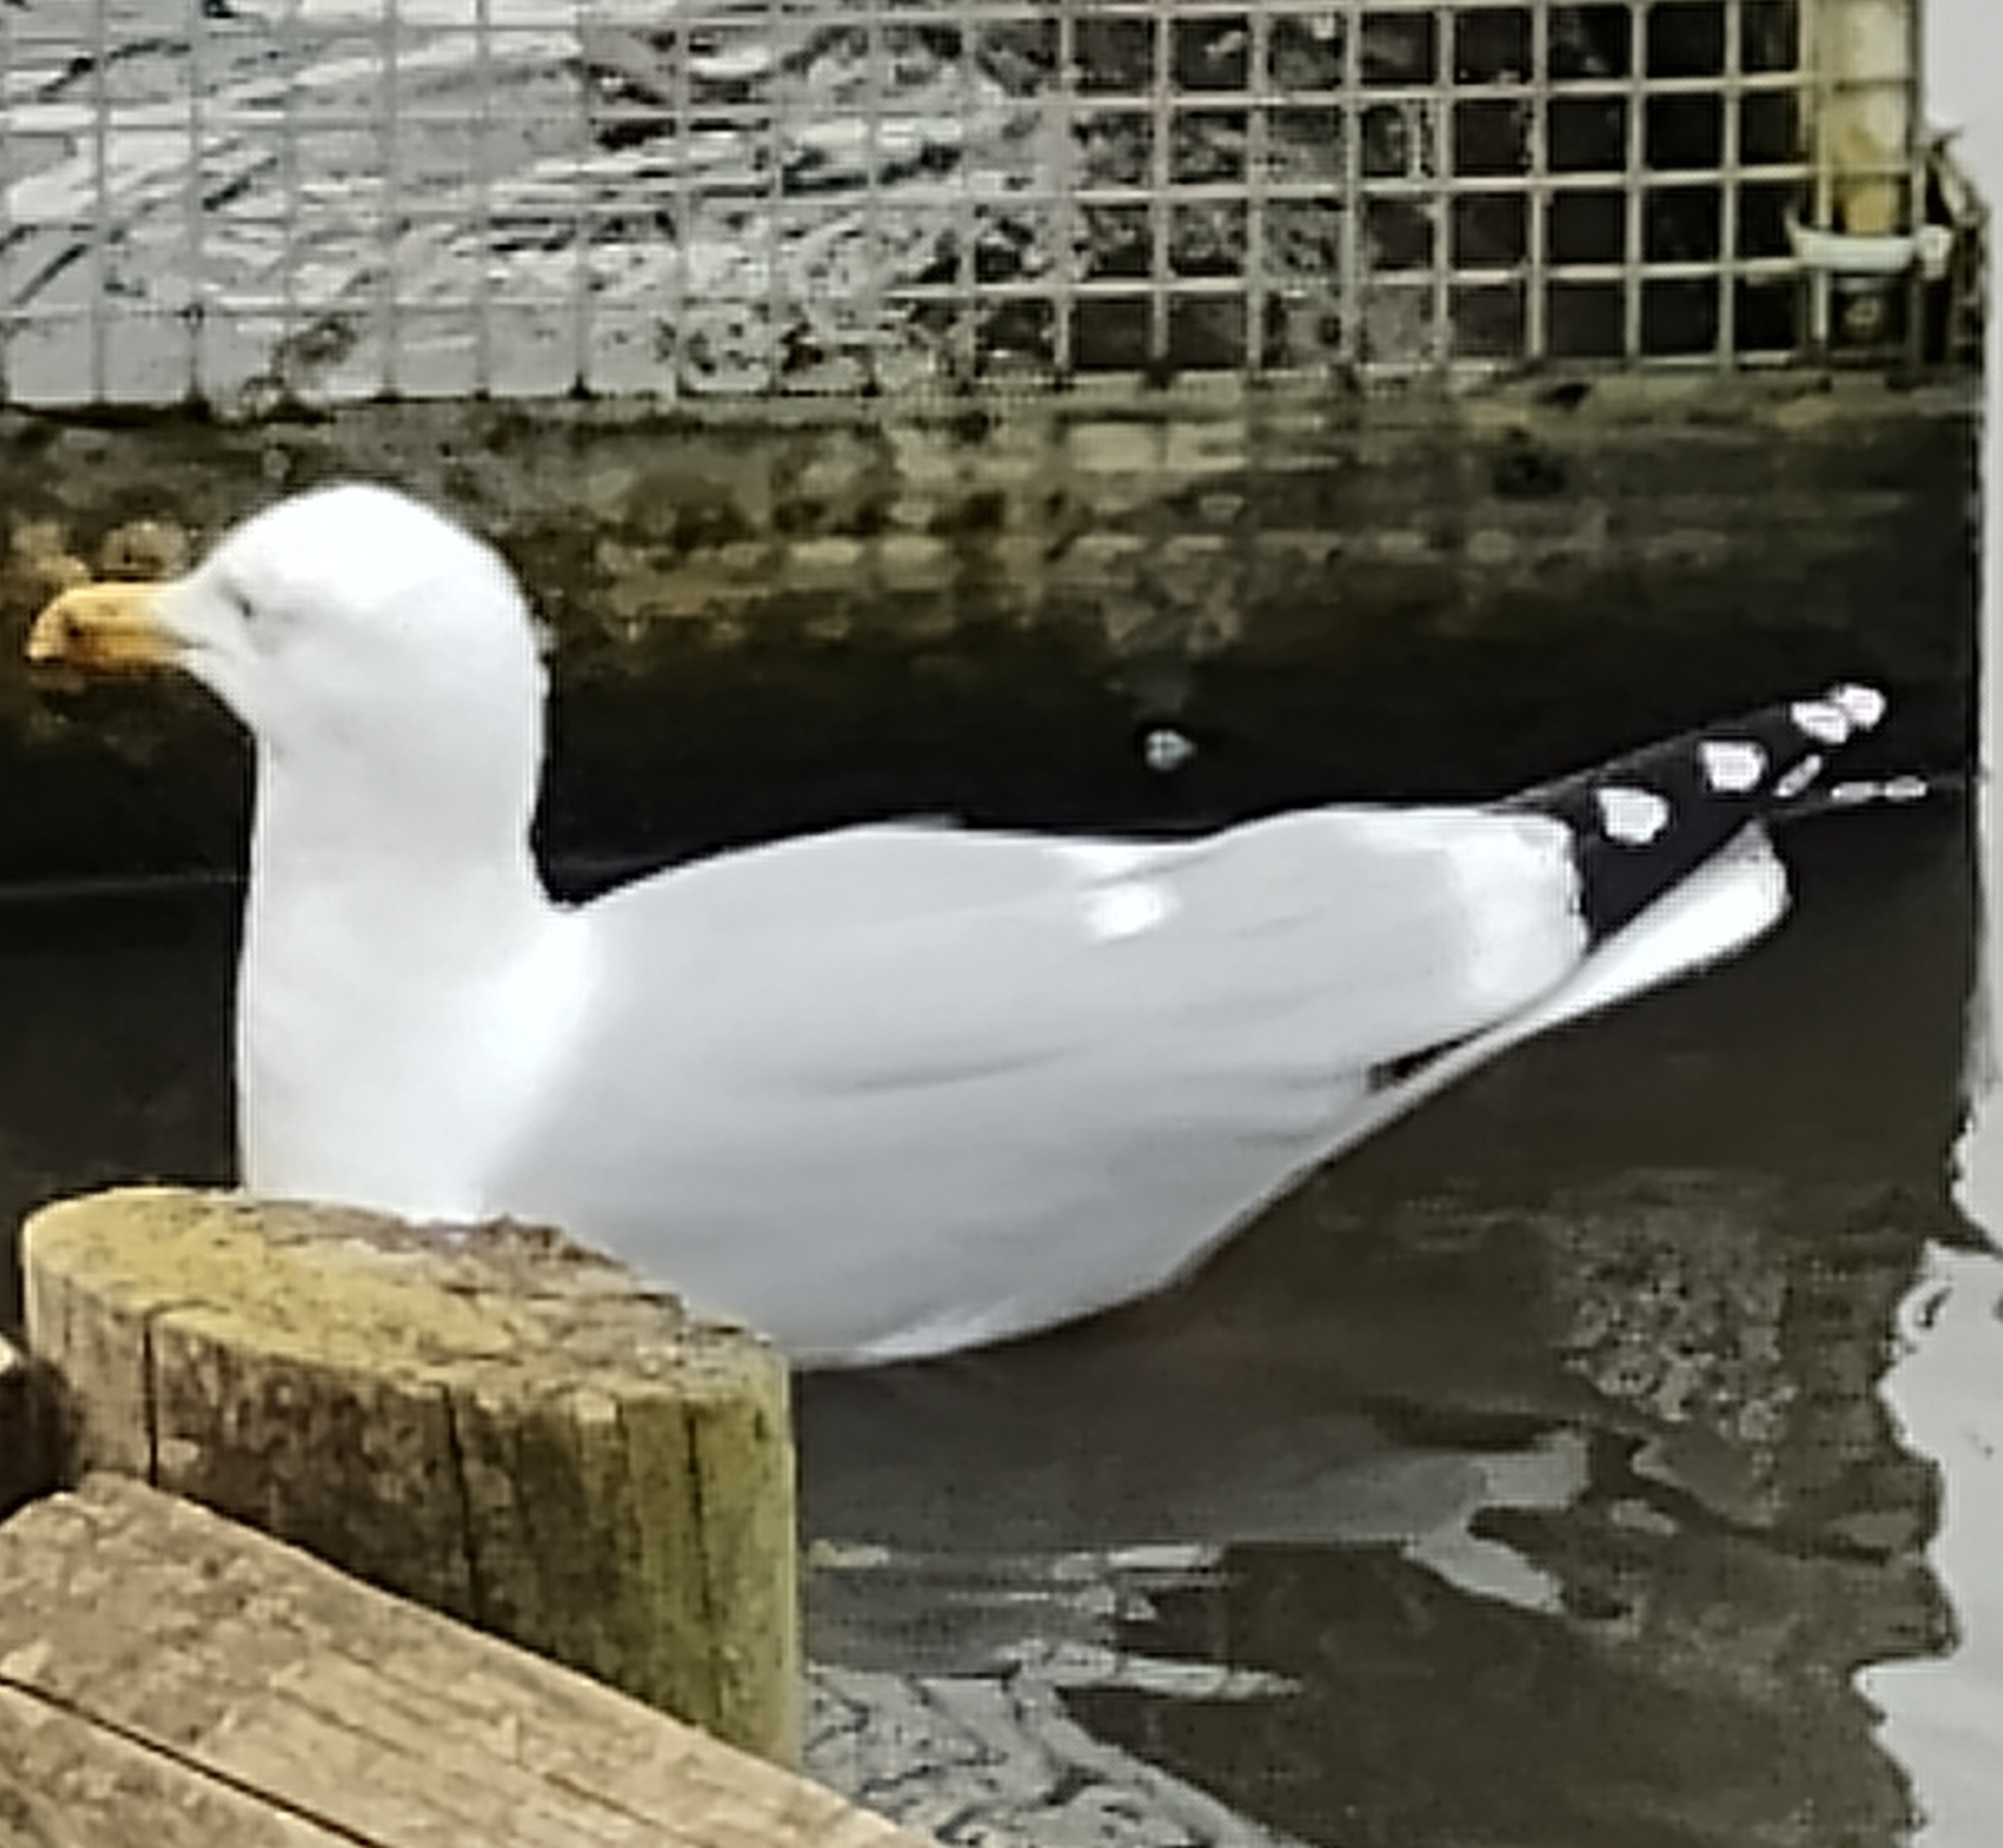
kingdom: Animalia
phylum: Chordata
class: Aves
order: Charadriiformes
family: Laridae
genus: Larus
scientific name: Larus argentatus
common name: Herring gull
